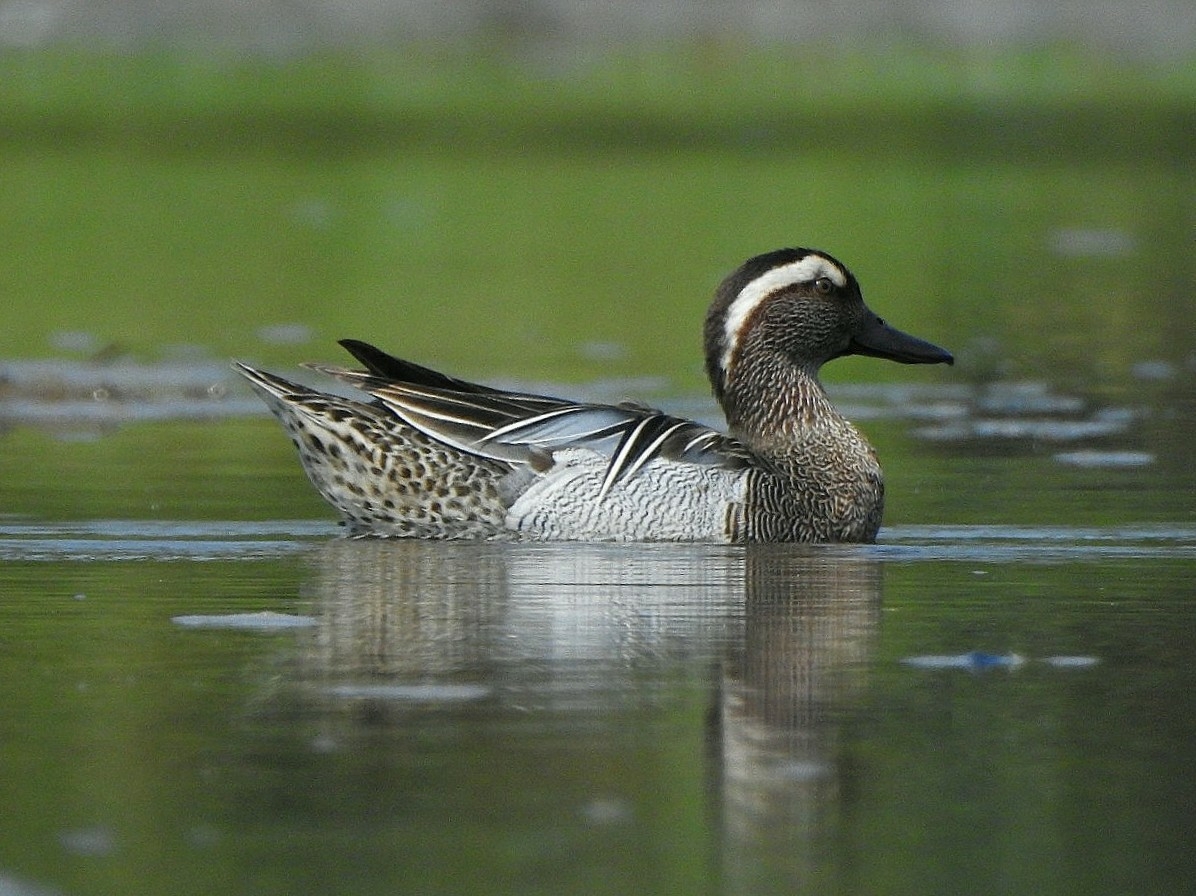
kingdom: Animalia
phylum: Chordata
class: Aves
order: Anseriformes
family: Anatidae
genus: Spatula
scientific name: Spatula querquedula
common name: Garganey
